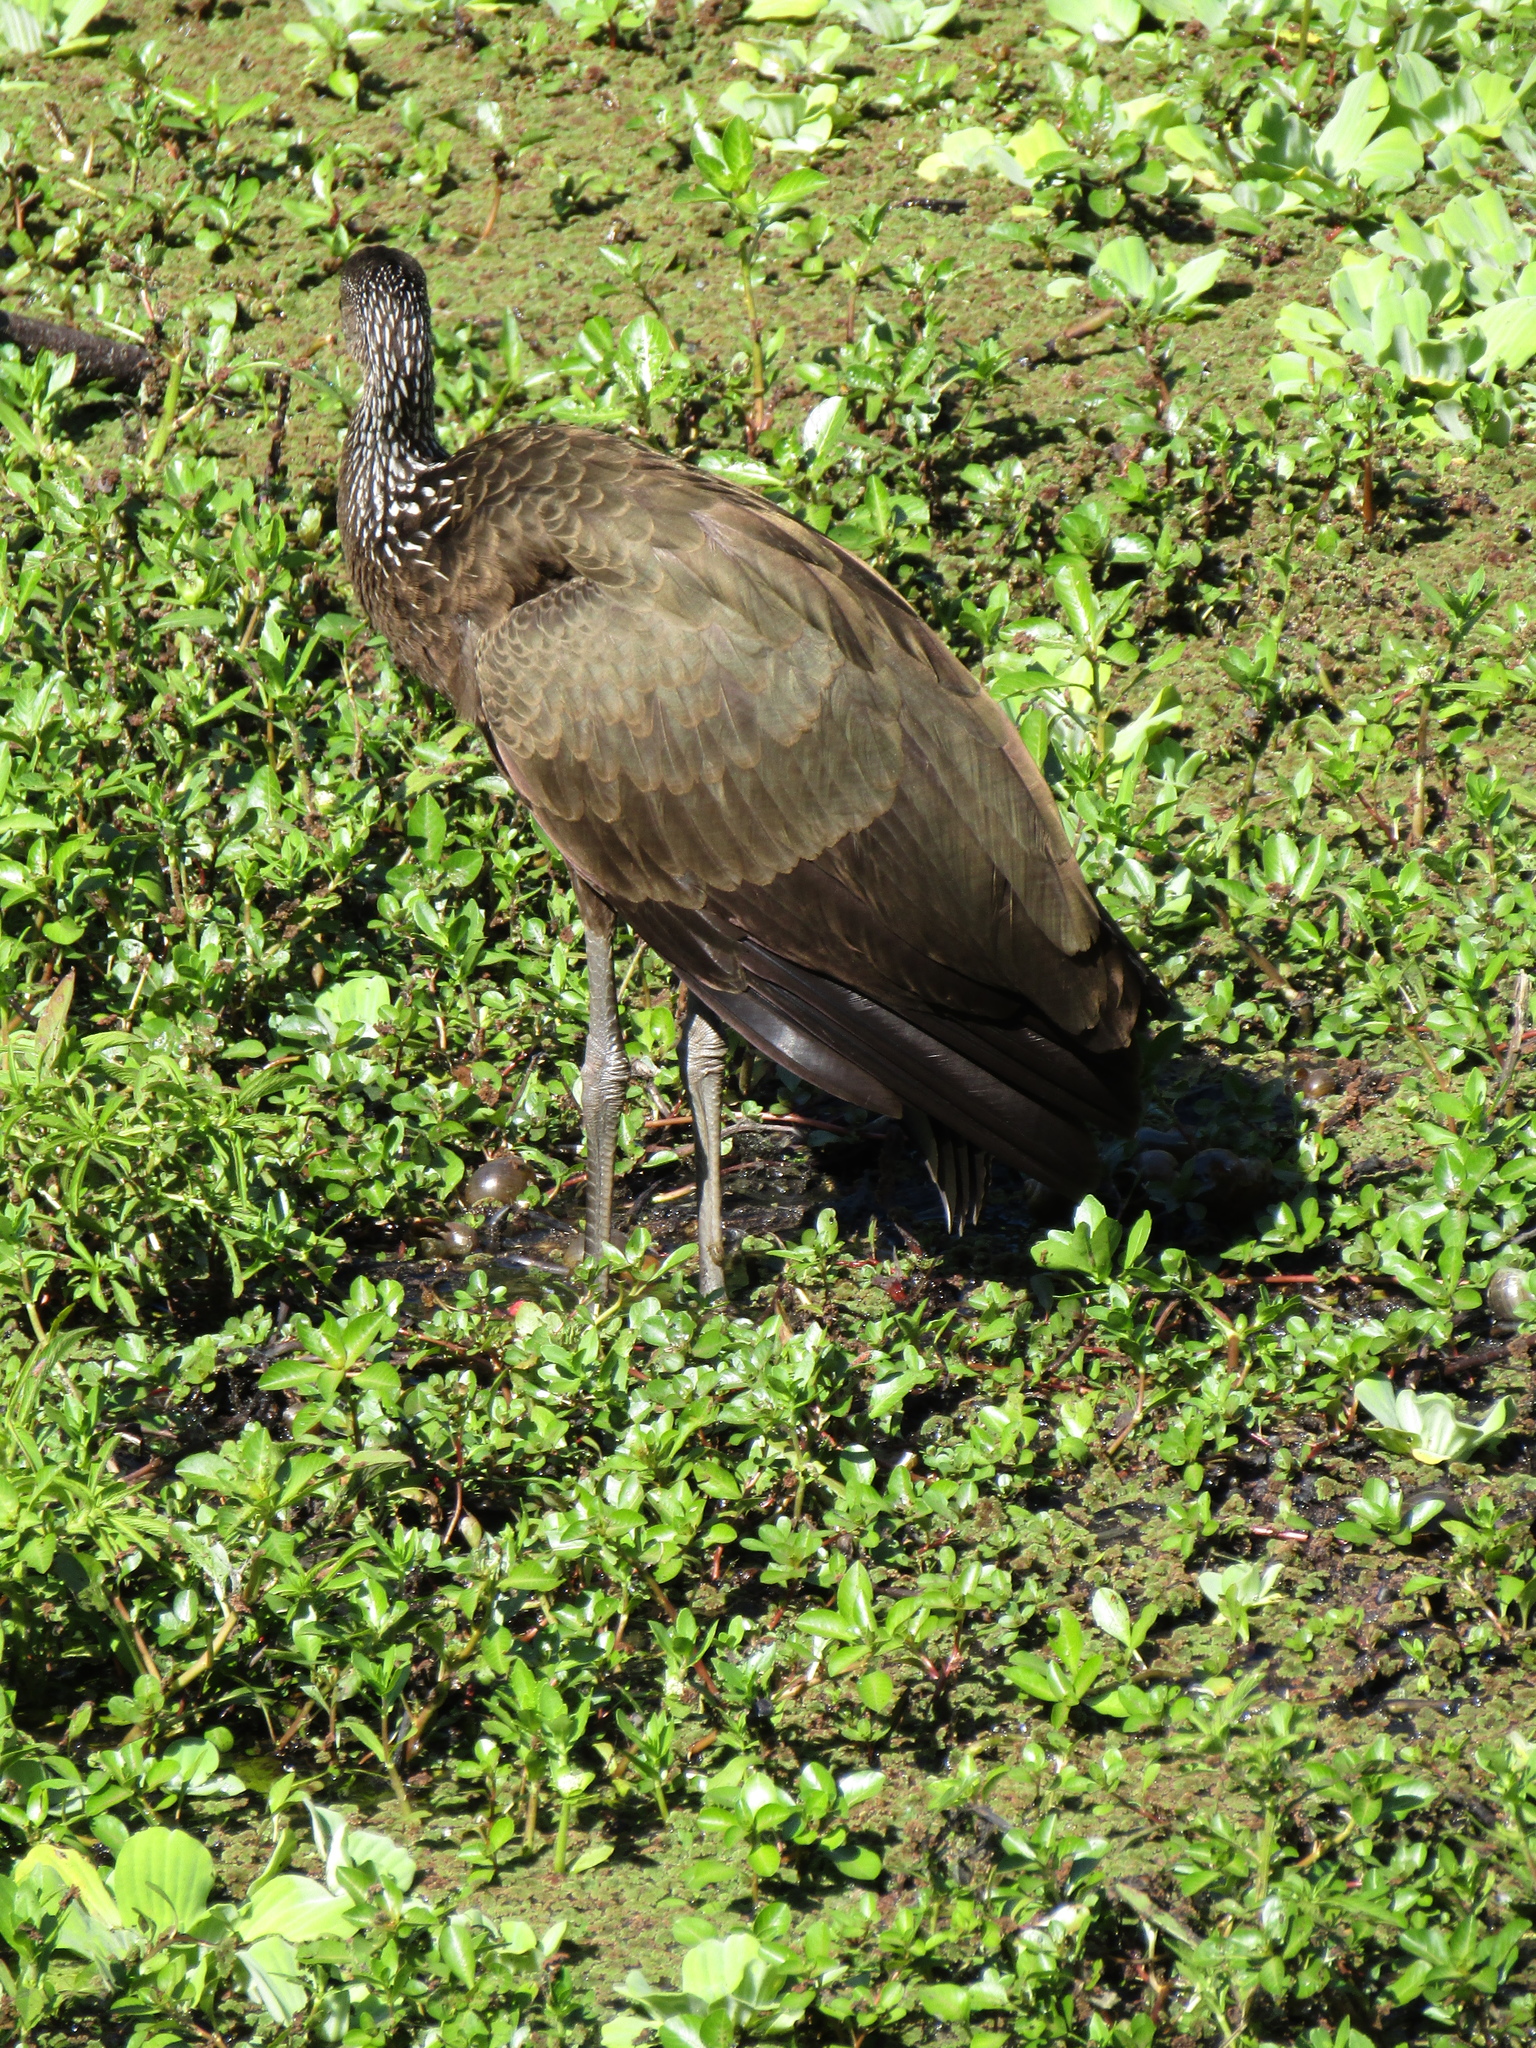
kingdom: Animalia
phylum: Chordata
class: Aves
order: Gruiformes
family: Aramidae
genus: Aramus
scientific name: Aramus guarauna
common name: Limpkin
